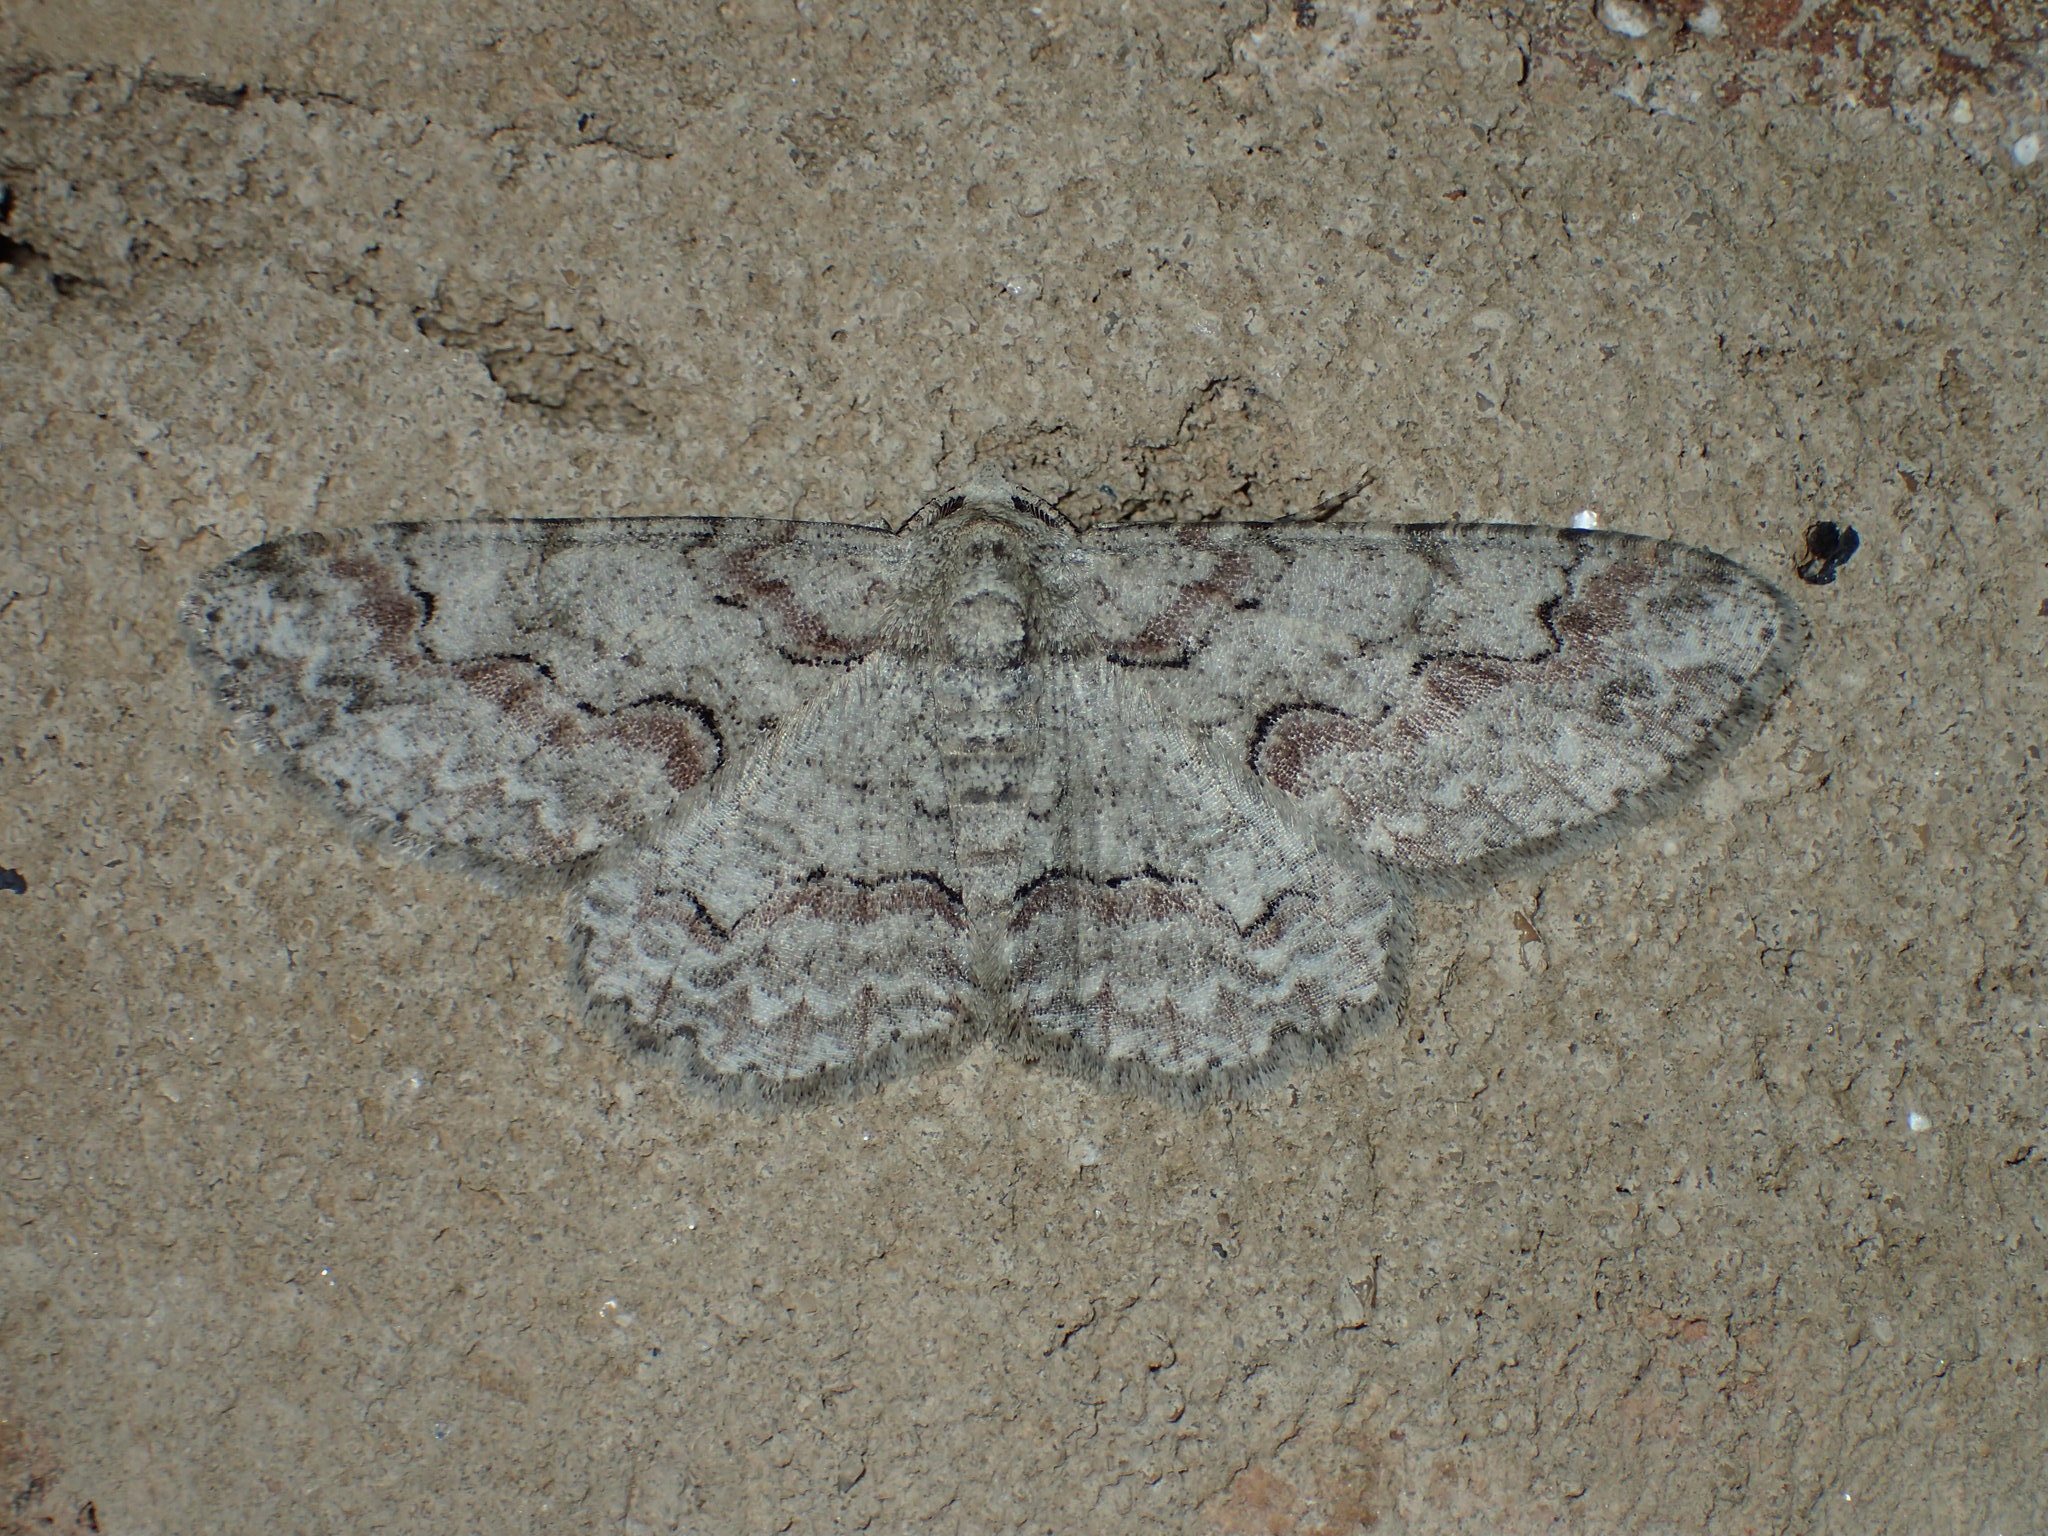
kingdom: Animalia
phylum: Arthropoda
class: Insecta
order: Lepidoptera
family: Geometridae
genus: Iridopsis
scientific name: Iridopsis defectaria
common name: Brown-shaded gray
